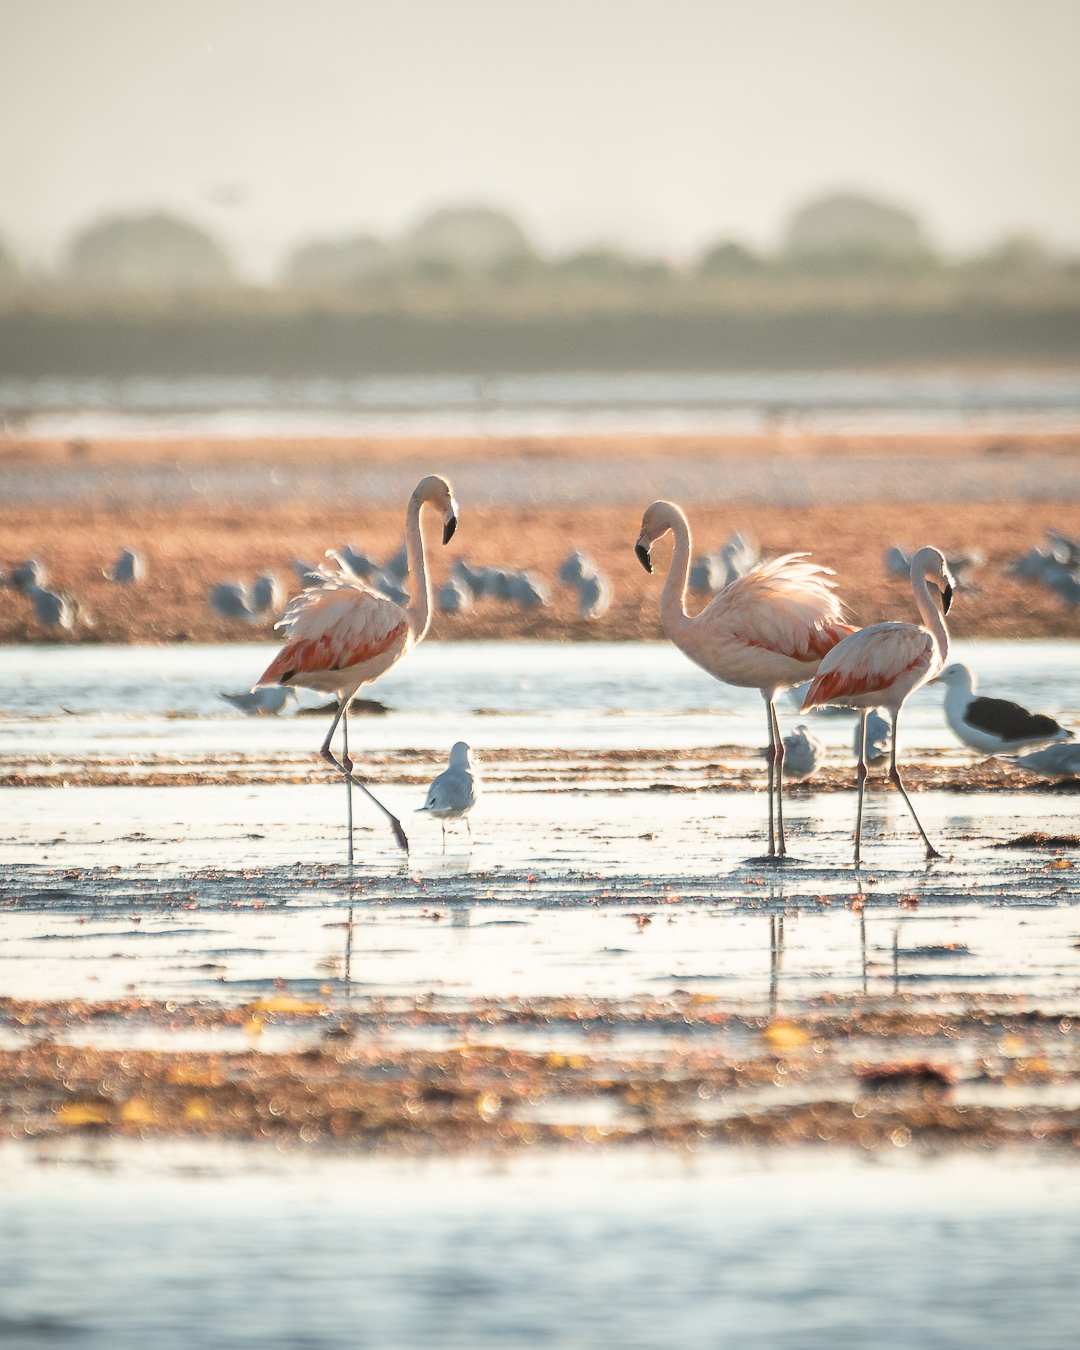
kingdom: Animalia
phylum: Chordata
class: Aves
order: Phoenicopteriformes
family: Phoenicopteridae
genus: Phoenicopterus
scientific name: Phoenicopterus chilensis
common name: Chilean flamingo
